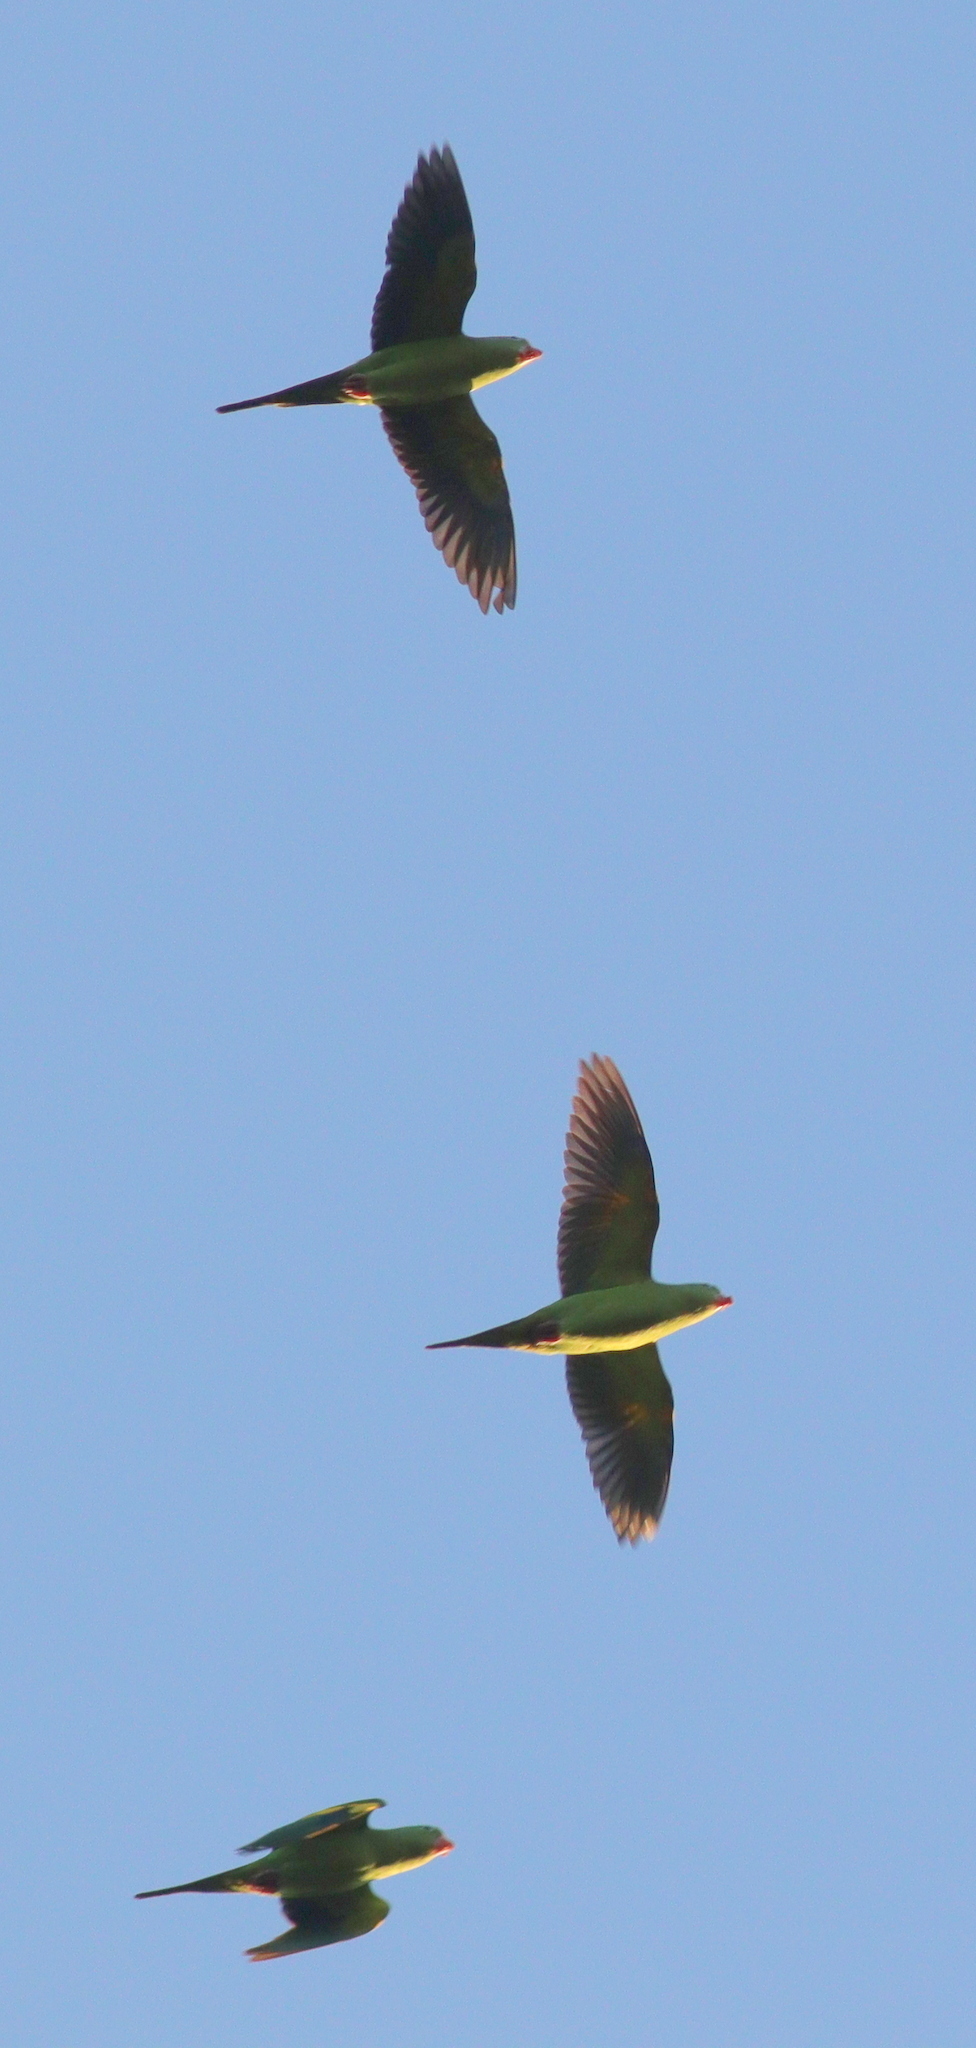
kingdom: Animalia
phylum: Chordata
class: Aves
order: Psittaciformes
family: Psittacidae
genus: Brotogeris
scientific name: Brotogeris chiriri
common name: Yellow-chevroned parakeet
